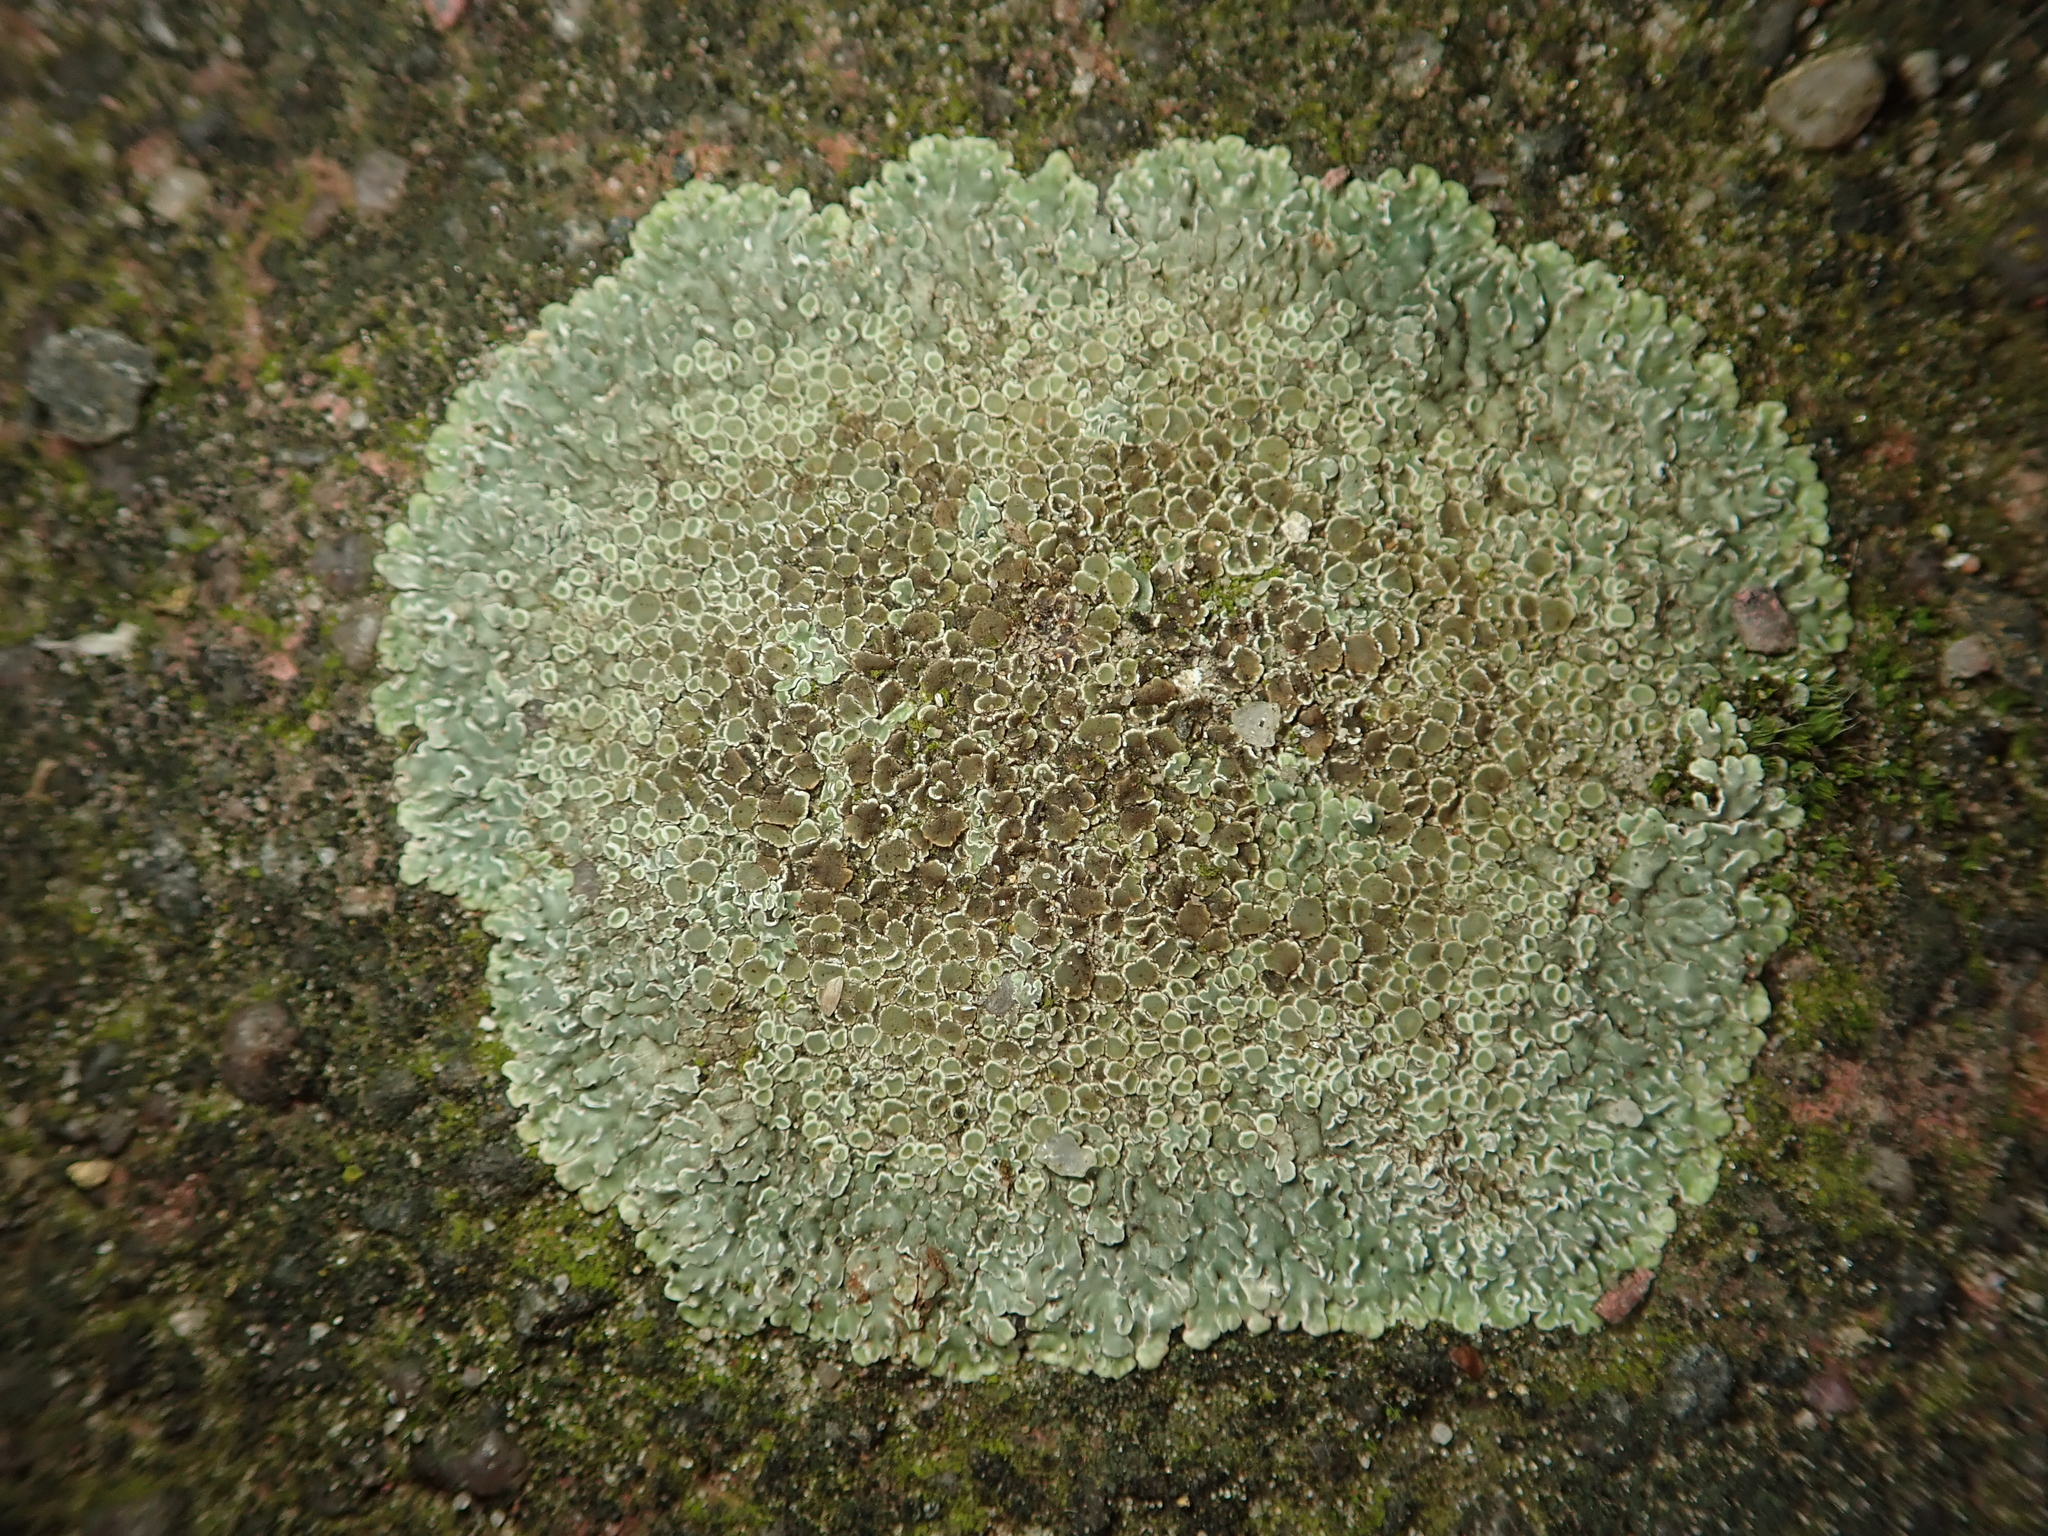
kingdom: Fungi
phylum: Ascomycota
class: Lecanoromycetes
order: Lecanorales
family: Lecanoraceae
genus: Protoparmeliopsis
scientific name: Protoparmeliopsis muralis
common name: Stonewall rim lichen
